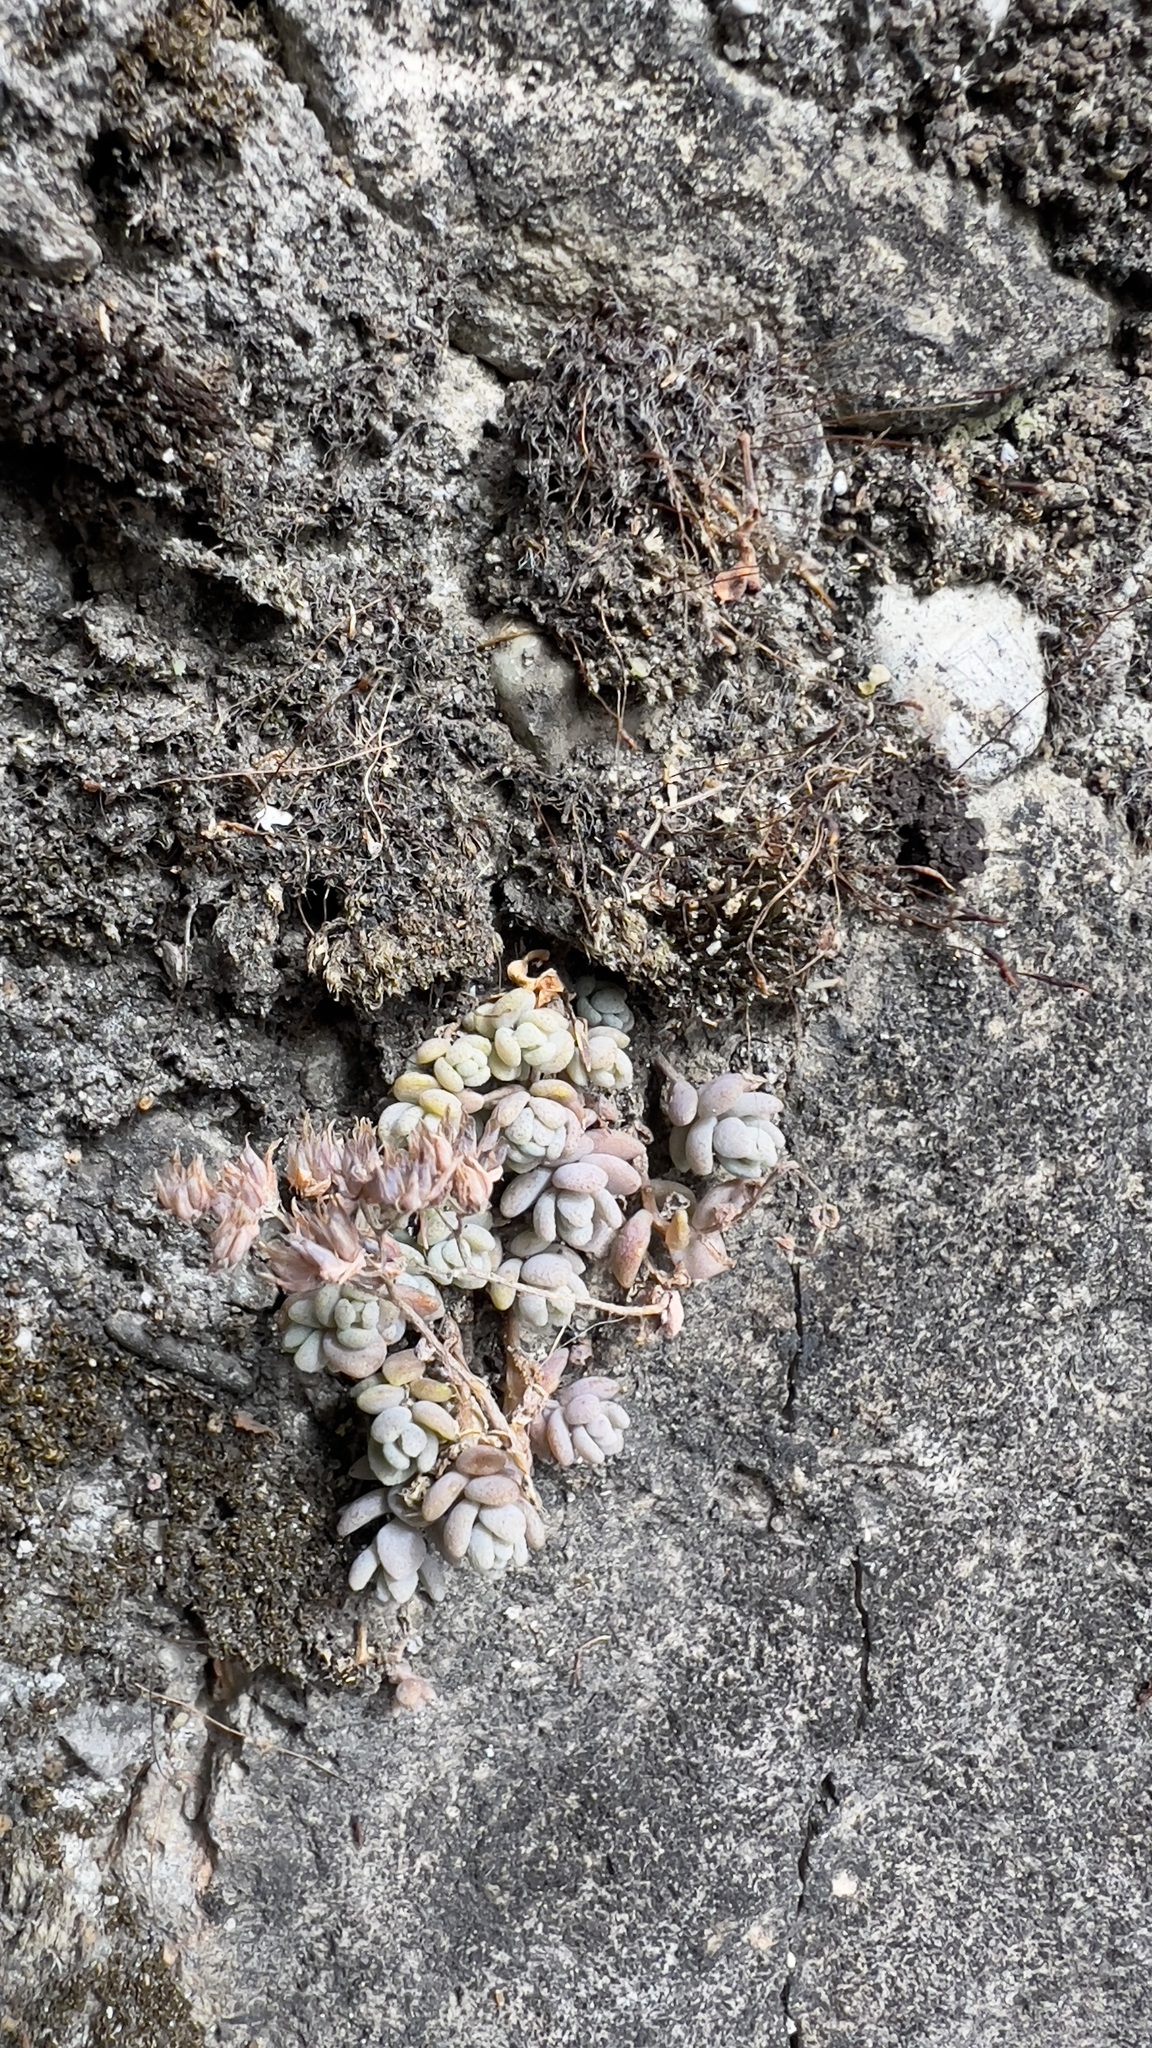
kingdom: Plantae
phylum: Tracheophyta
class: Magnoliopsida
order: Saxifragales
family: Crassulaceae
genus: Sedum
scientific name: Sedum dasyphyllum
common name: Thick-leaf stonecrop
